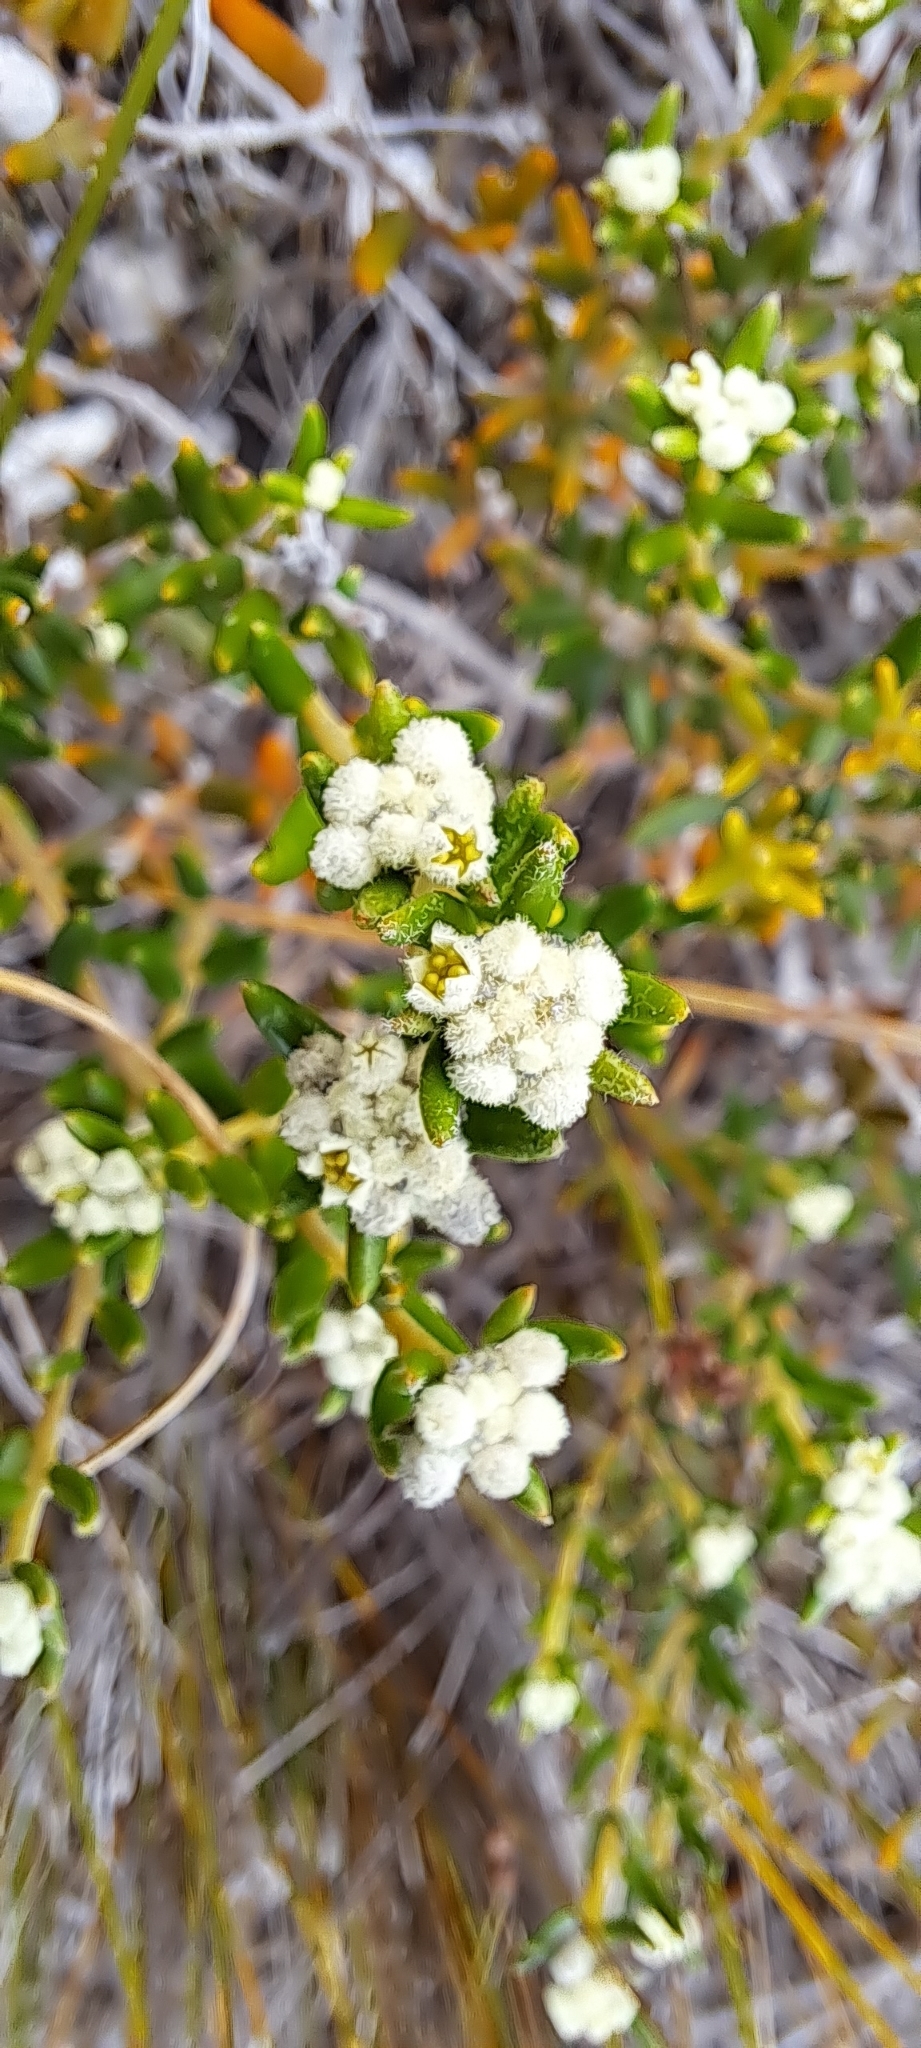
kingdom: Plantae
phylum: Tracheophyta
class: Magnoliopsida
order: Rosales
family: Rhamnaceae
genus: Phylica
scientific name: Phylica lasiocarpa
